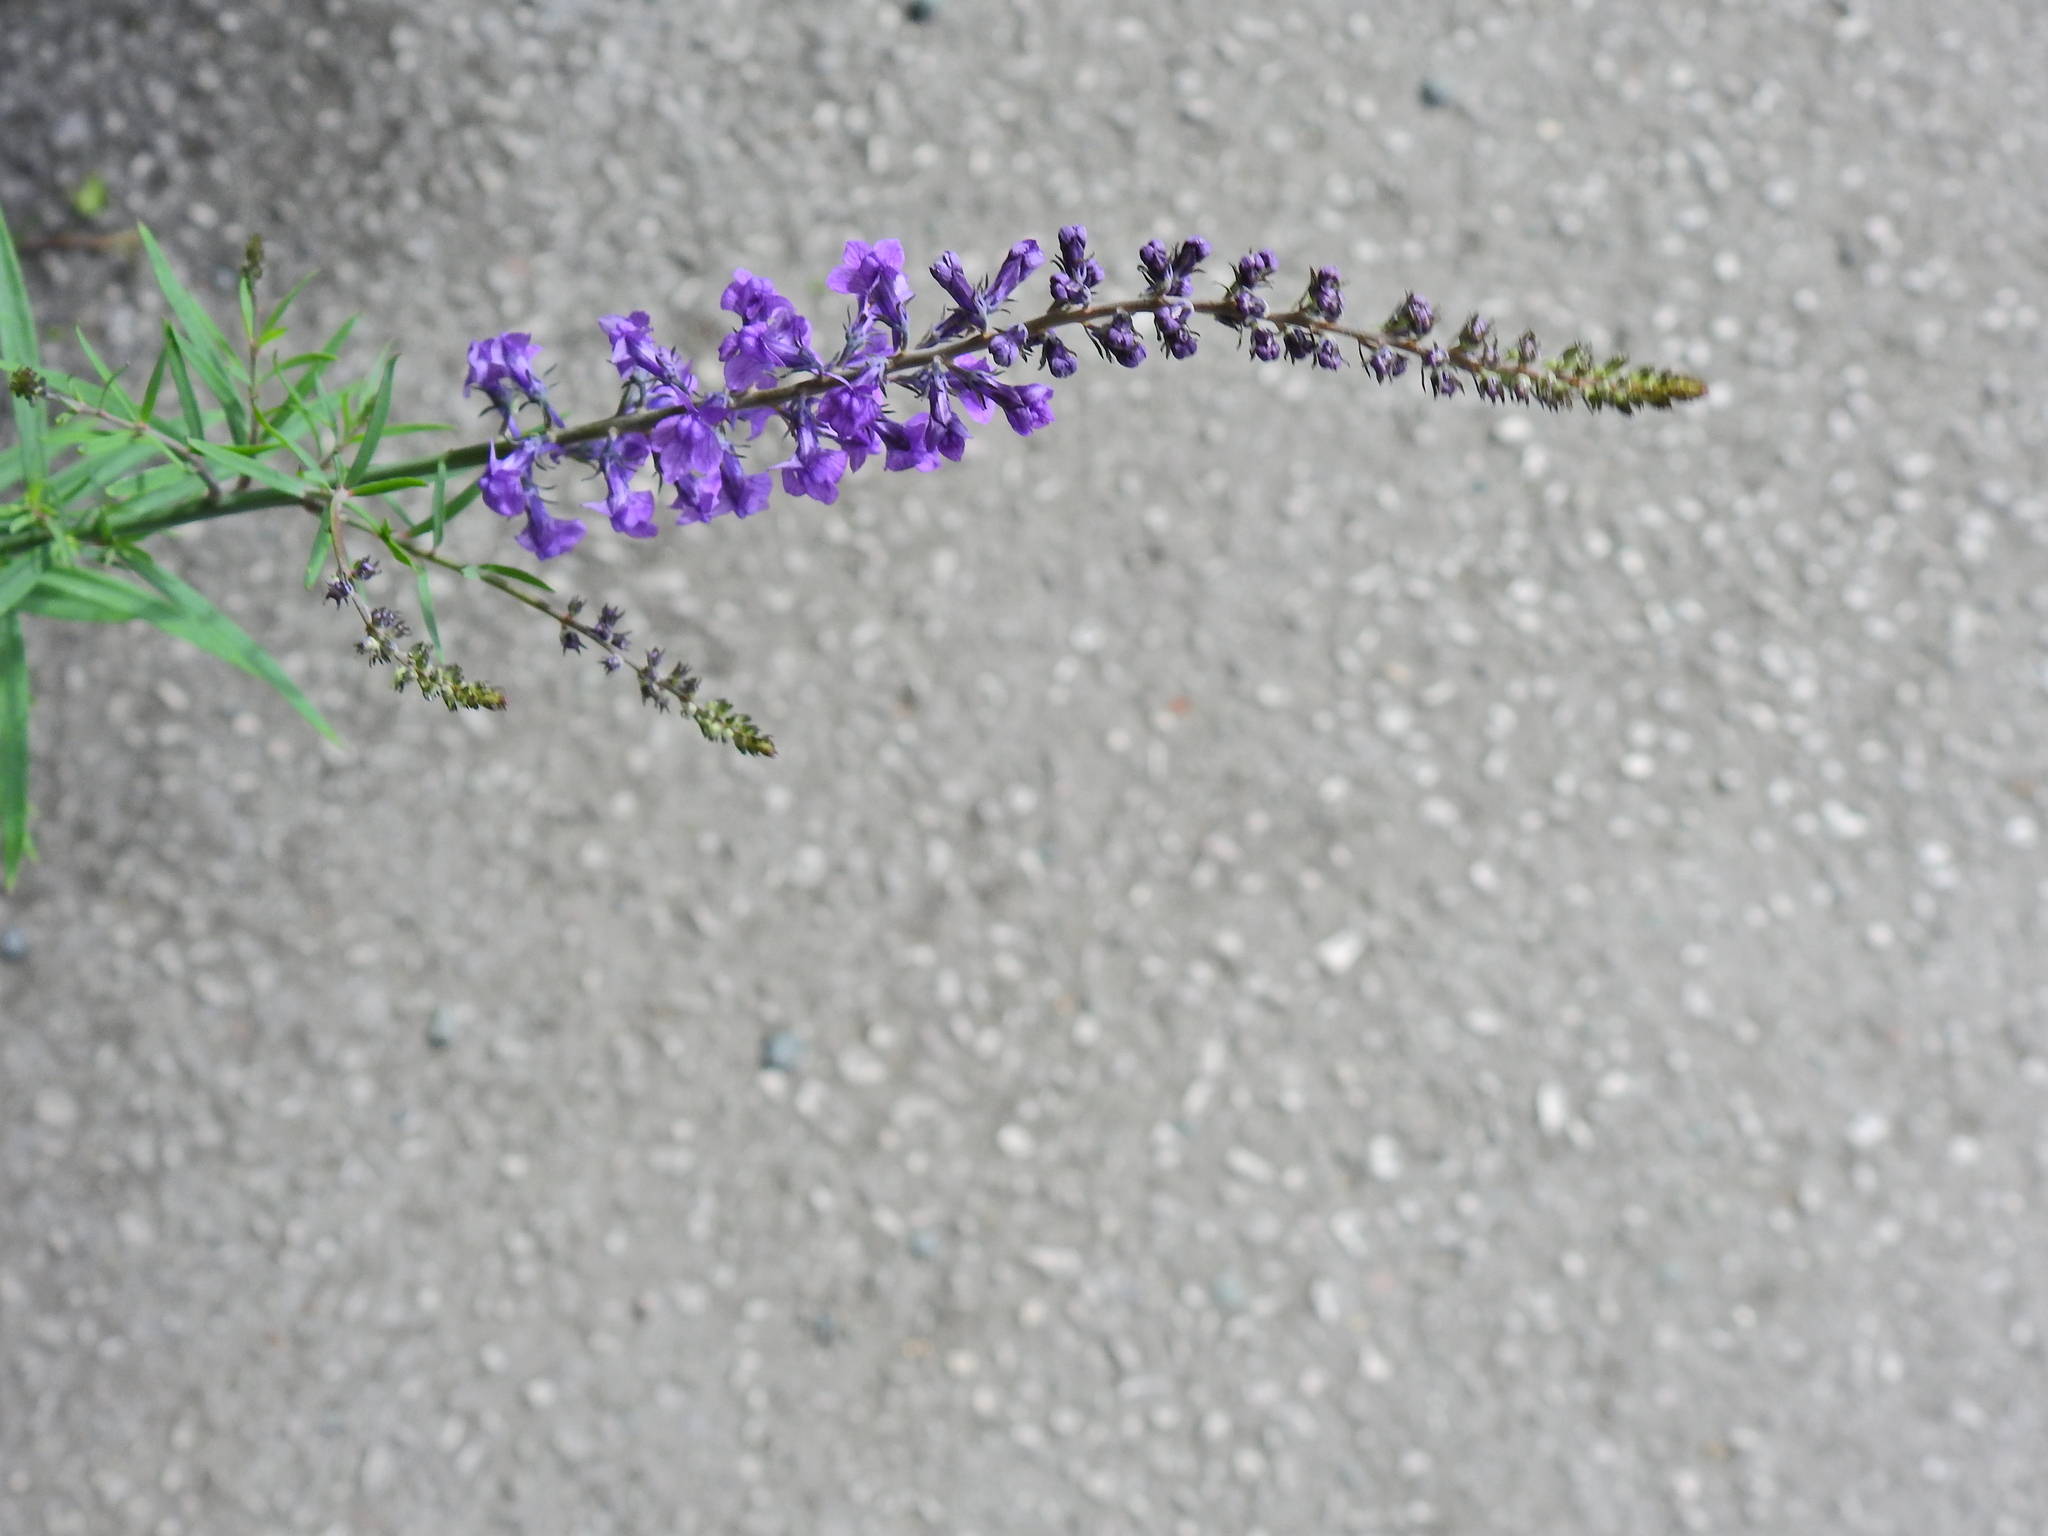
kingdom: Plantae
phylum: Tracheophyta
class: Magnoliopsida
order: Lamiales
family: Plantaginaceae
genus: Linaria
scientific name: Linaria purpurea
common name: Purple toadflax
